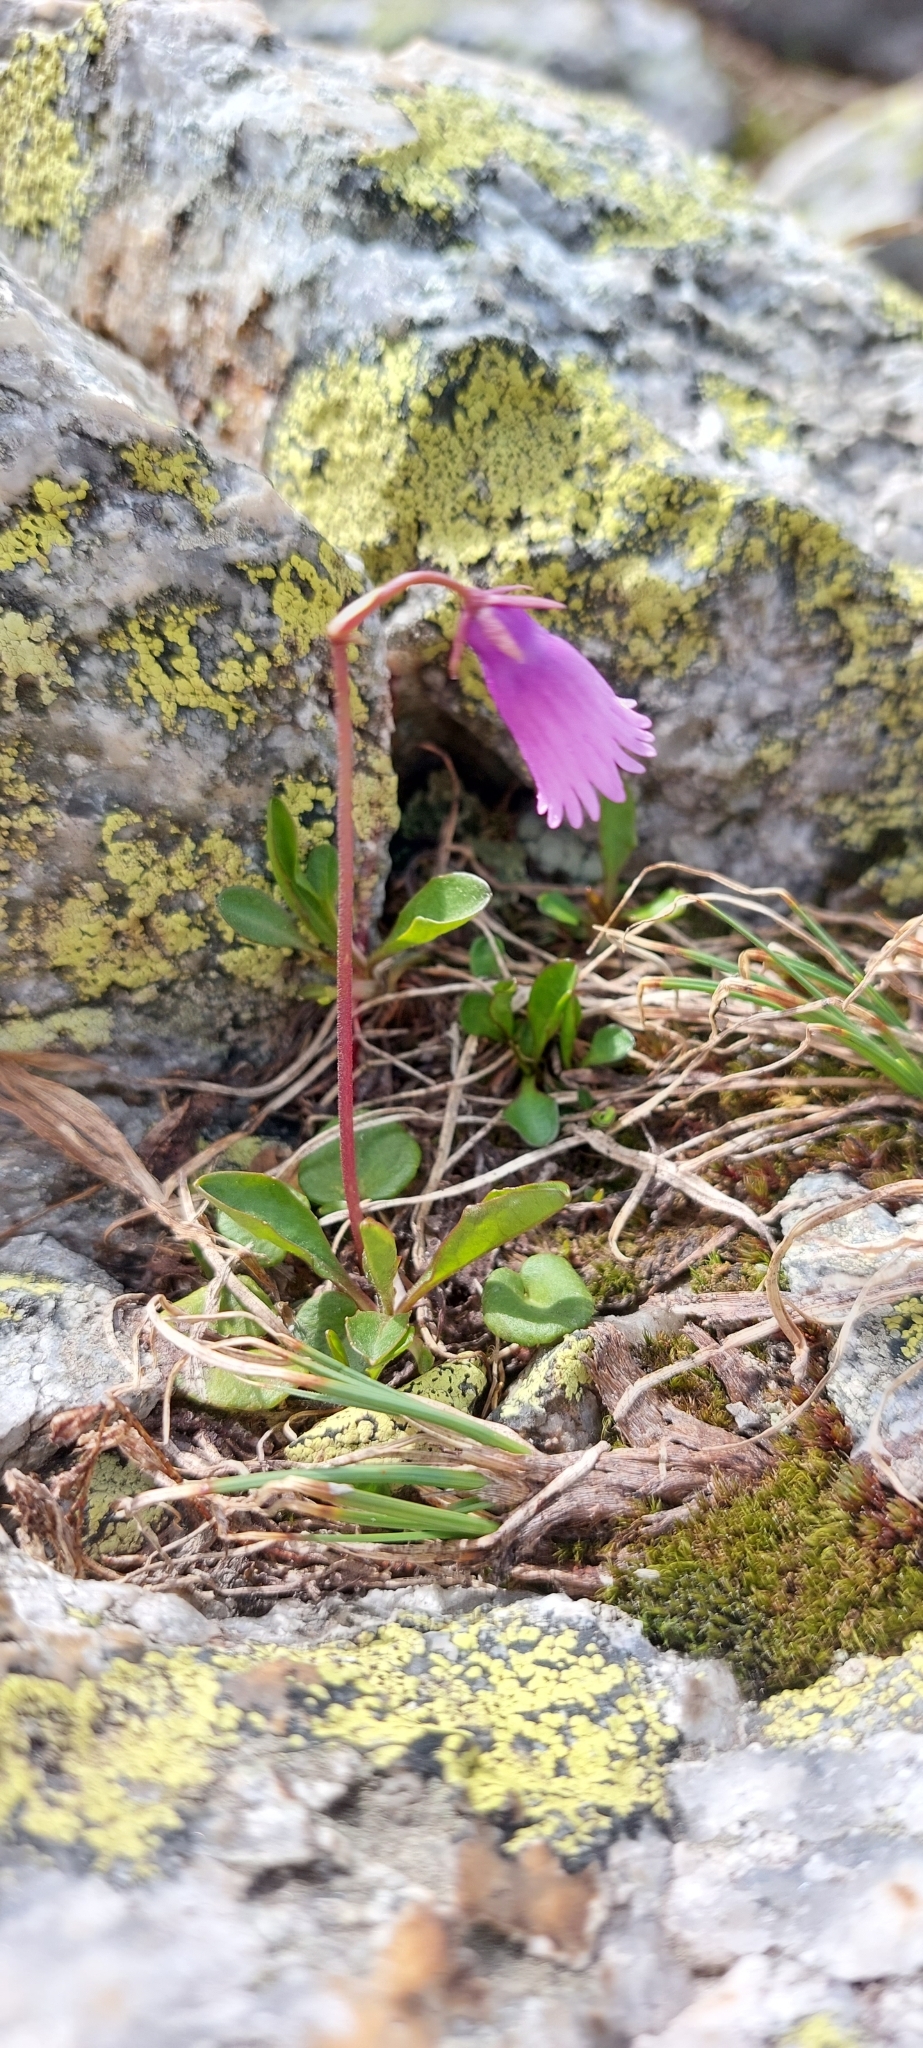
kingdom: Plantae
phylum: Tracheophyta
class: Magnoliopsida
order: Ericales
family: Primulaceae
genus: Soldanella
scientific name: Soldanella pusilla
